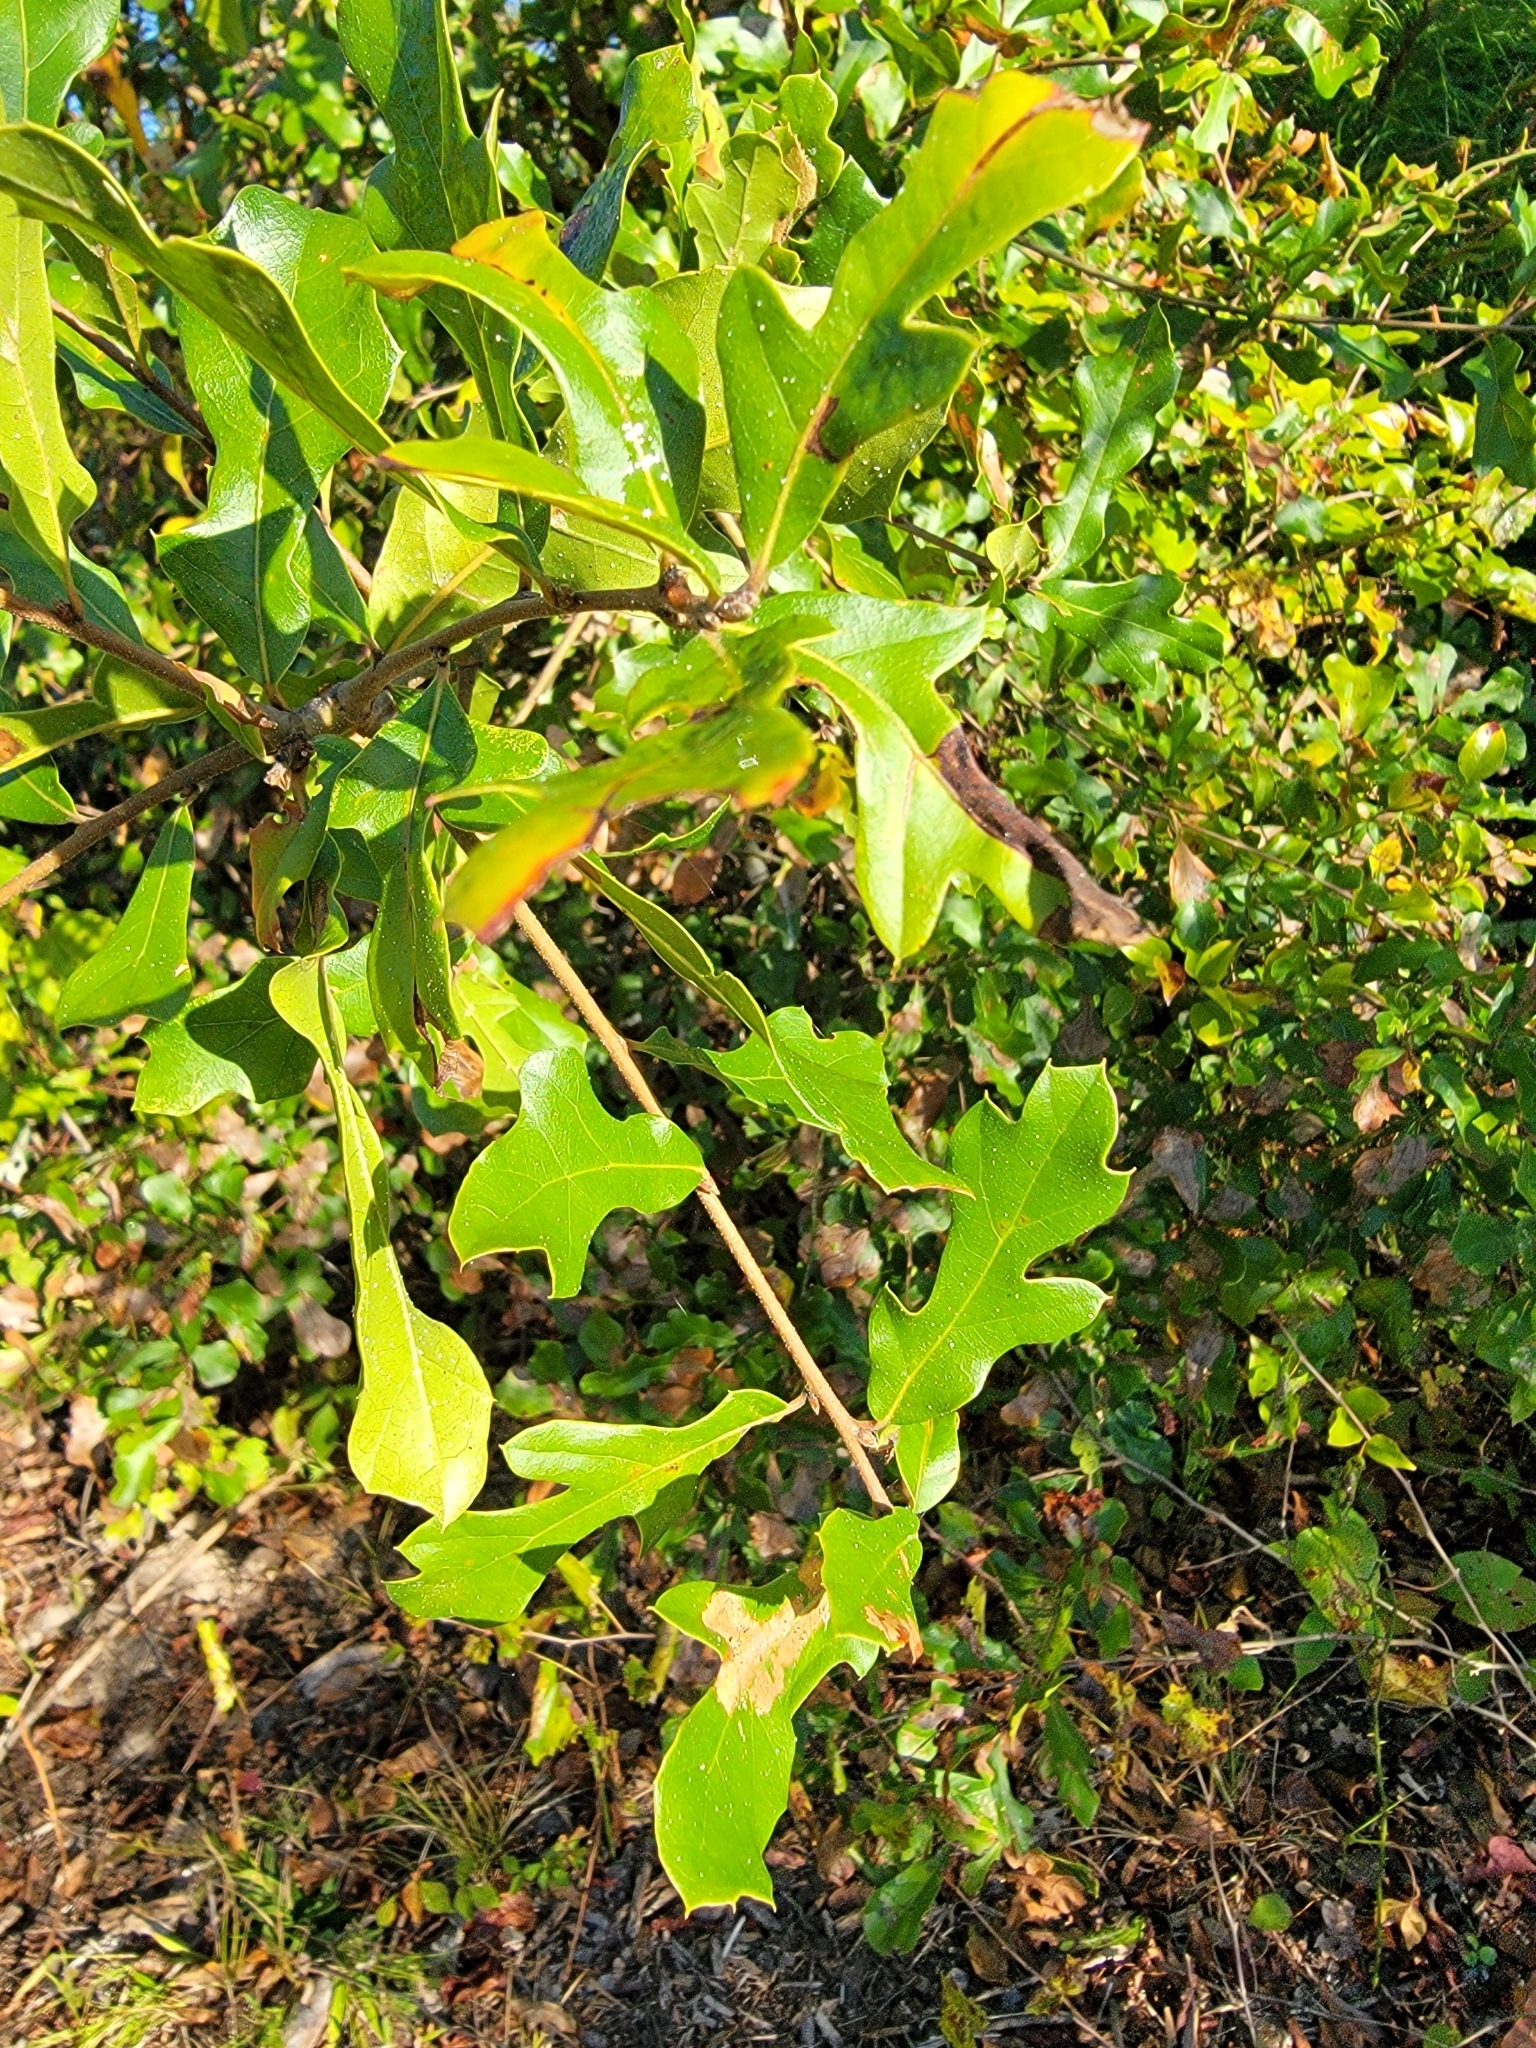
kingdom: Plantae
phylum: Tracheophyta
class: Magnoliopsida
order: Fagales
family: Fagaceae
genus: Quercus
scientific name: Quercus nigra
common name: Water oak
